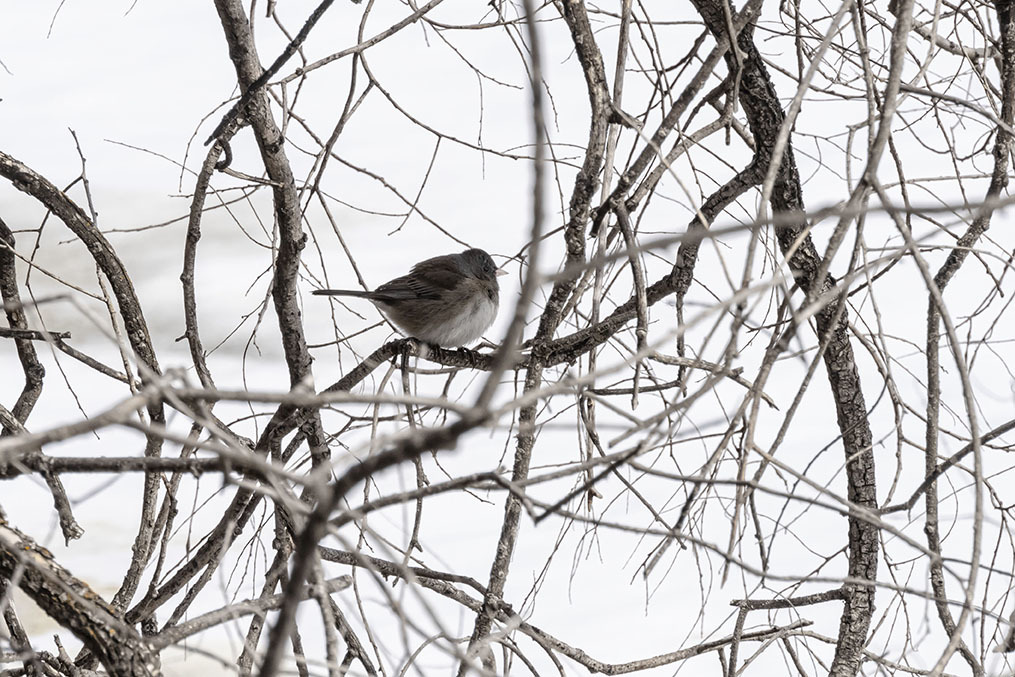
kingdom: Animalia
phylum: Chordata
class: Aves
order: Passeriformes
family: Passerellidae
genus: Junco
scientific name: Junco hyemalis
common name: Dark-eyed junco
